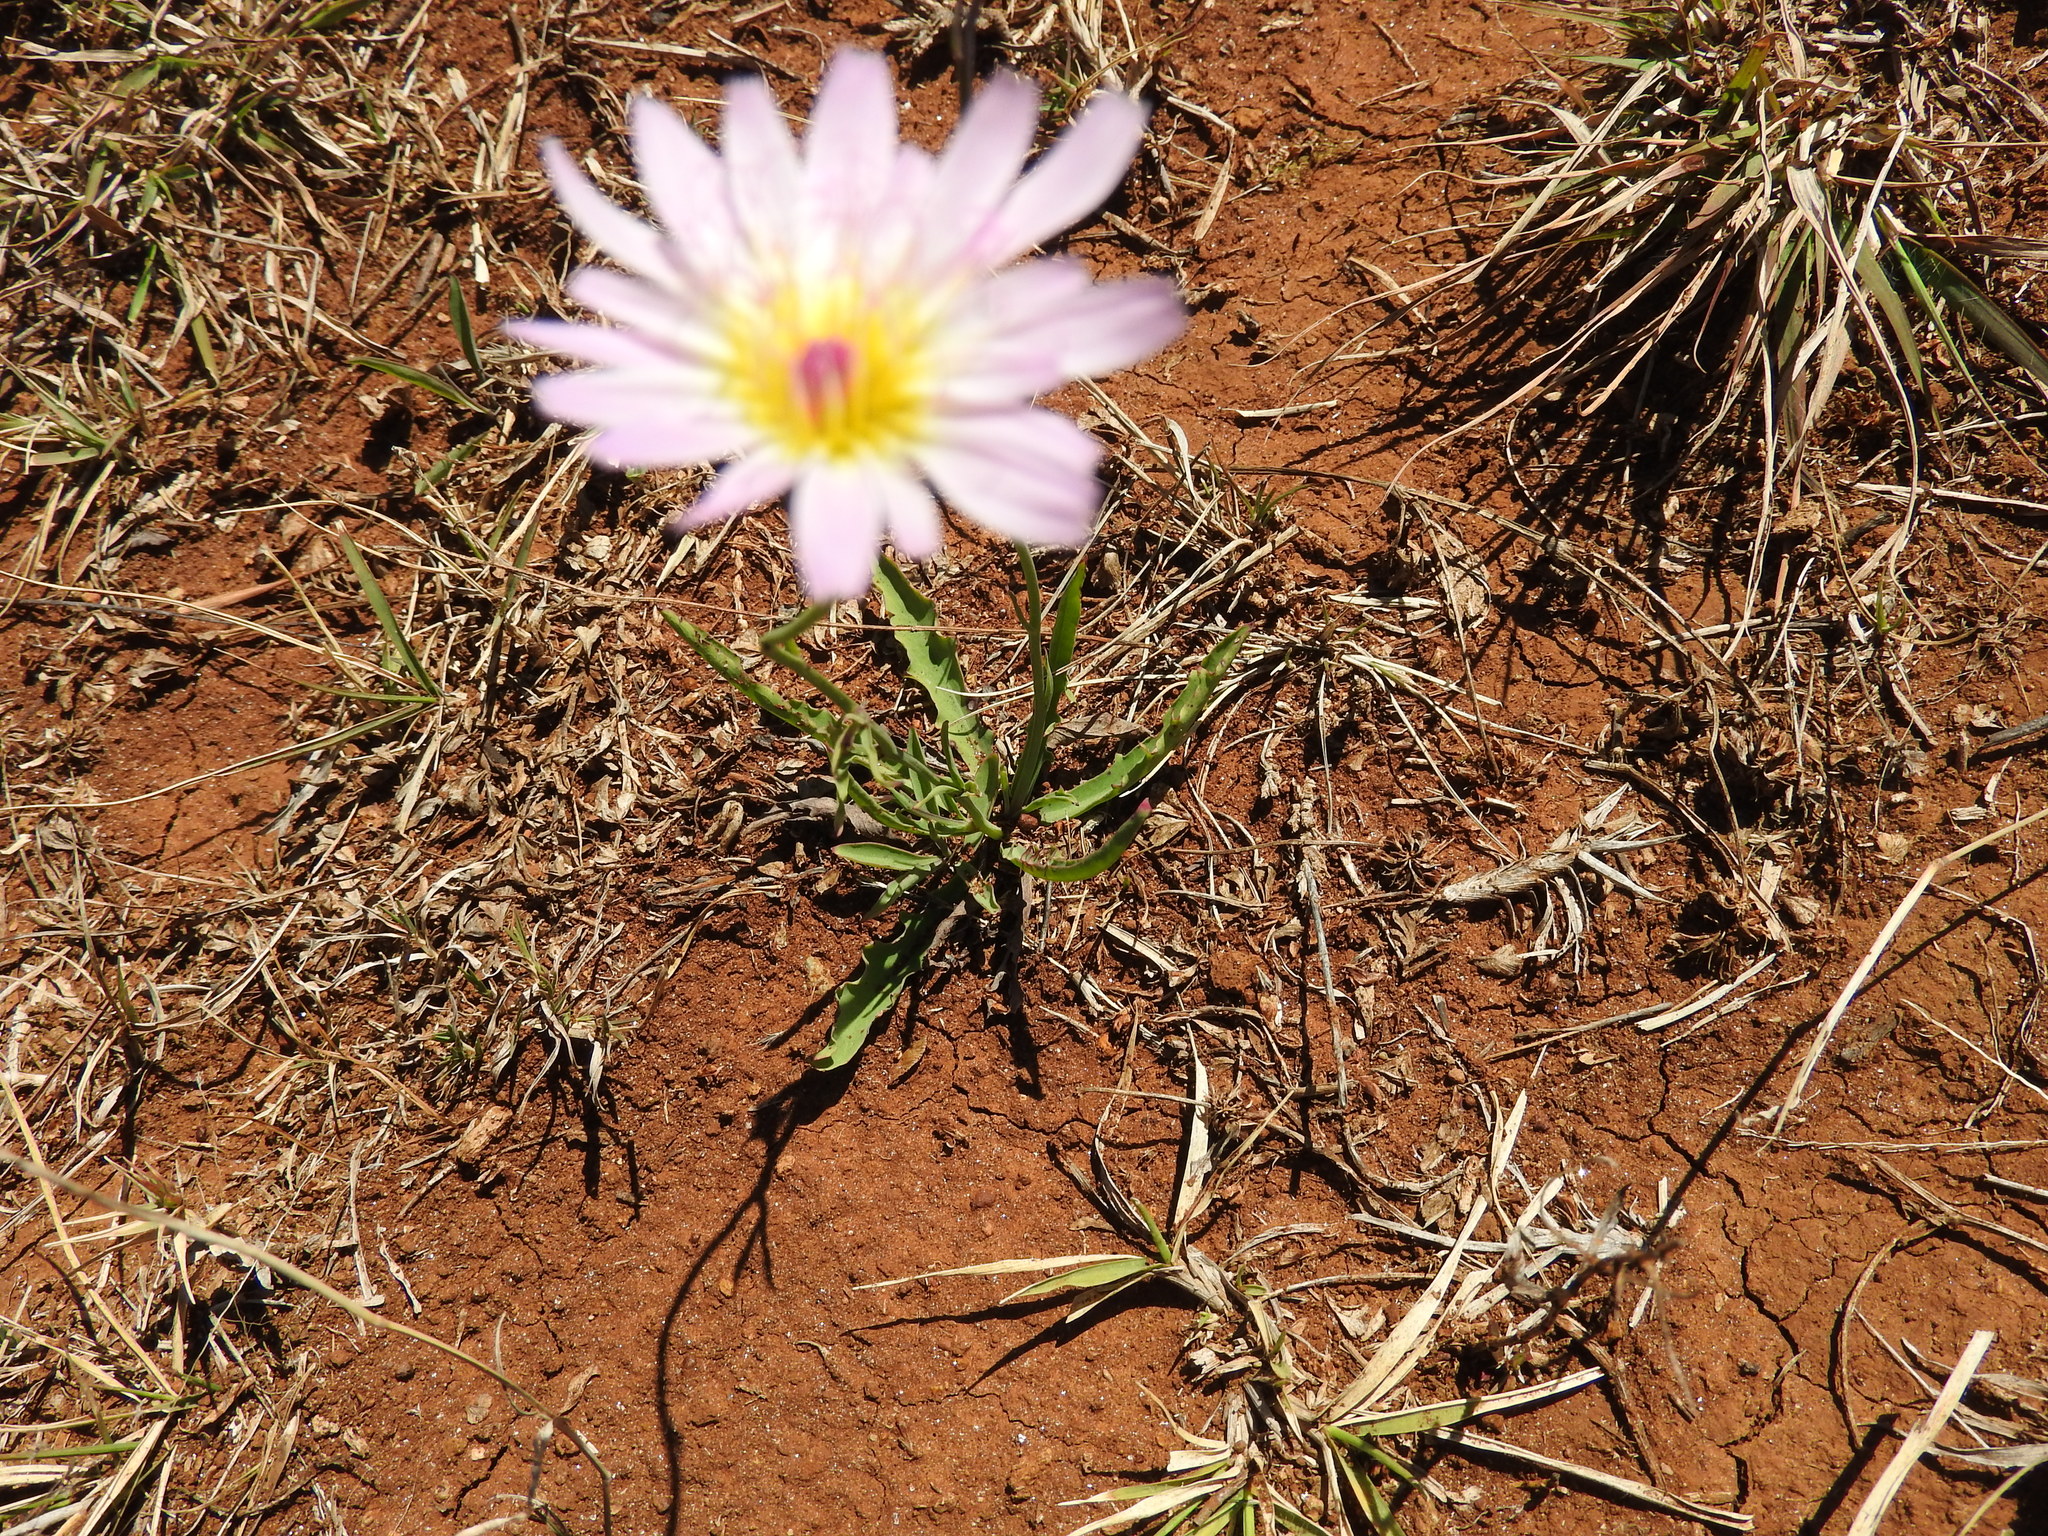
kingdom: Plantae
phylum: Tracheophyta
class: Magnoliopsida
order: Asterales
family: Asteraceae
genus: Pinaropappus
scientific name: Pinaropappus roseus
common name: Rock-lettuce
